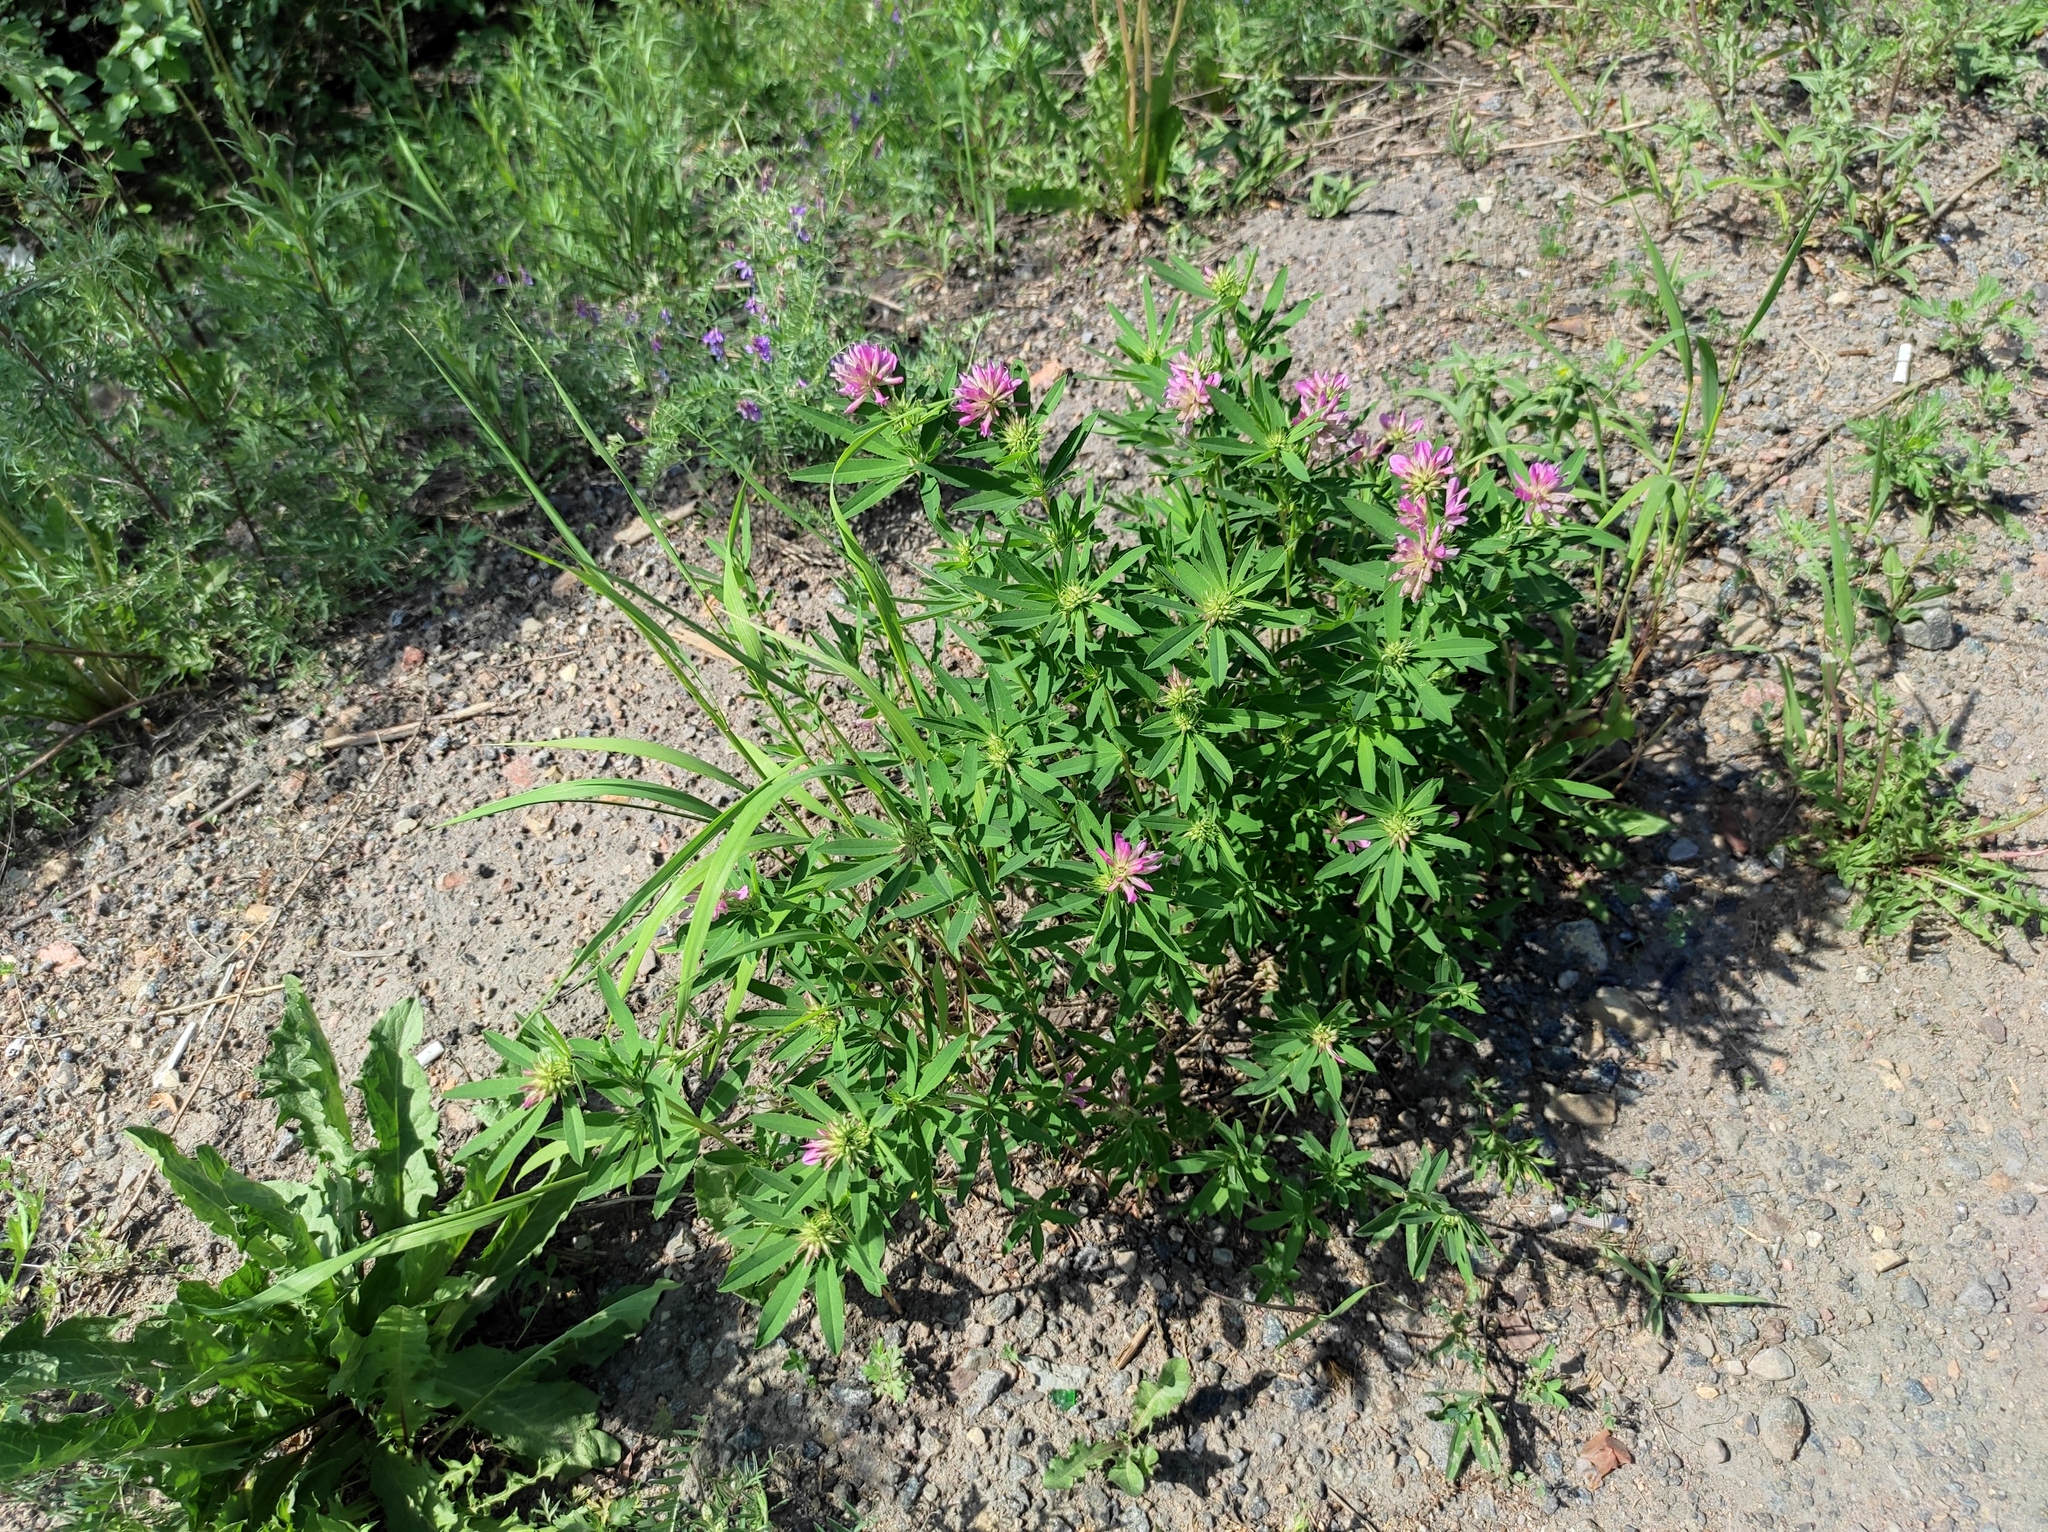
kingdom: Plantae
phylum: Tracheophyta
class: Magnoliopsida
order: Fabales
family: Fabaceae
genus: Trifolium
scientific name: Trifolium lupinaster
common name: Lupine clover
